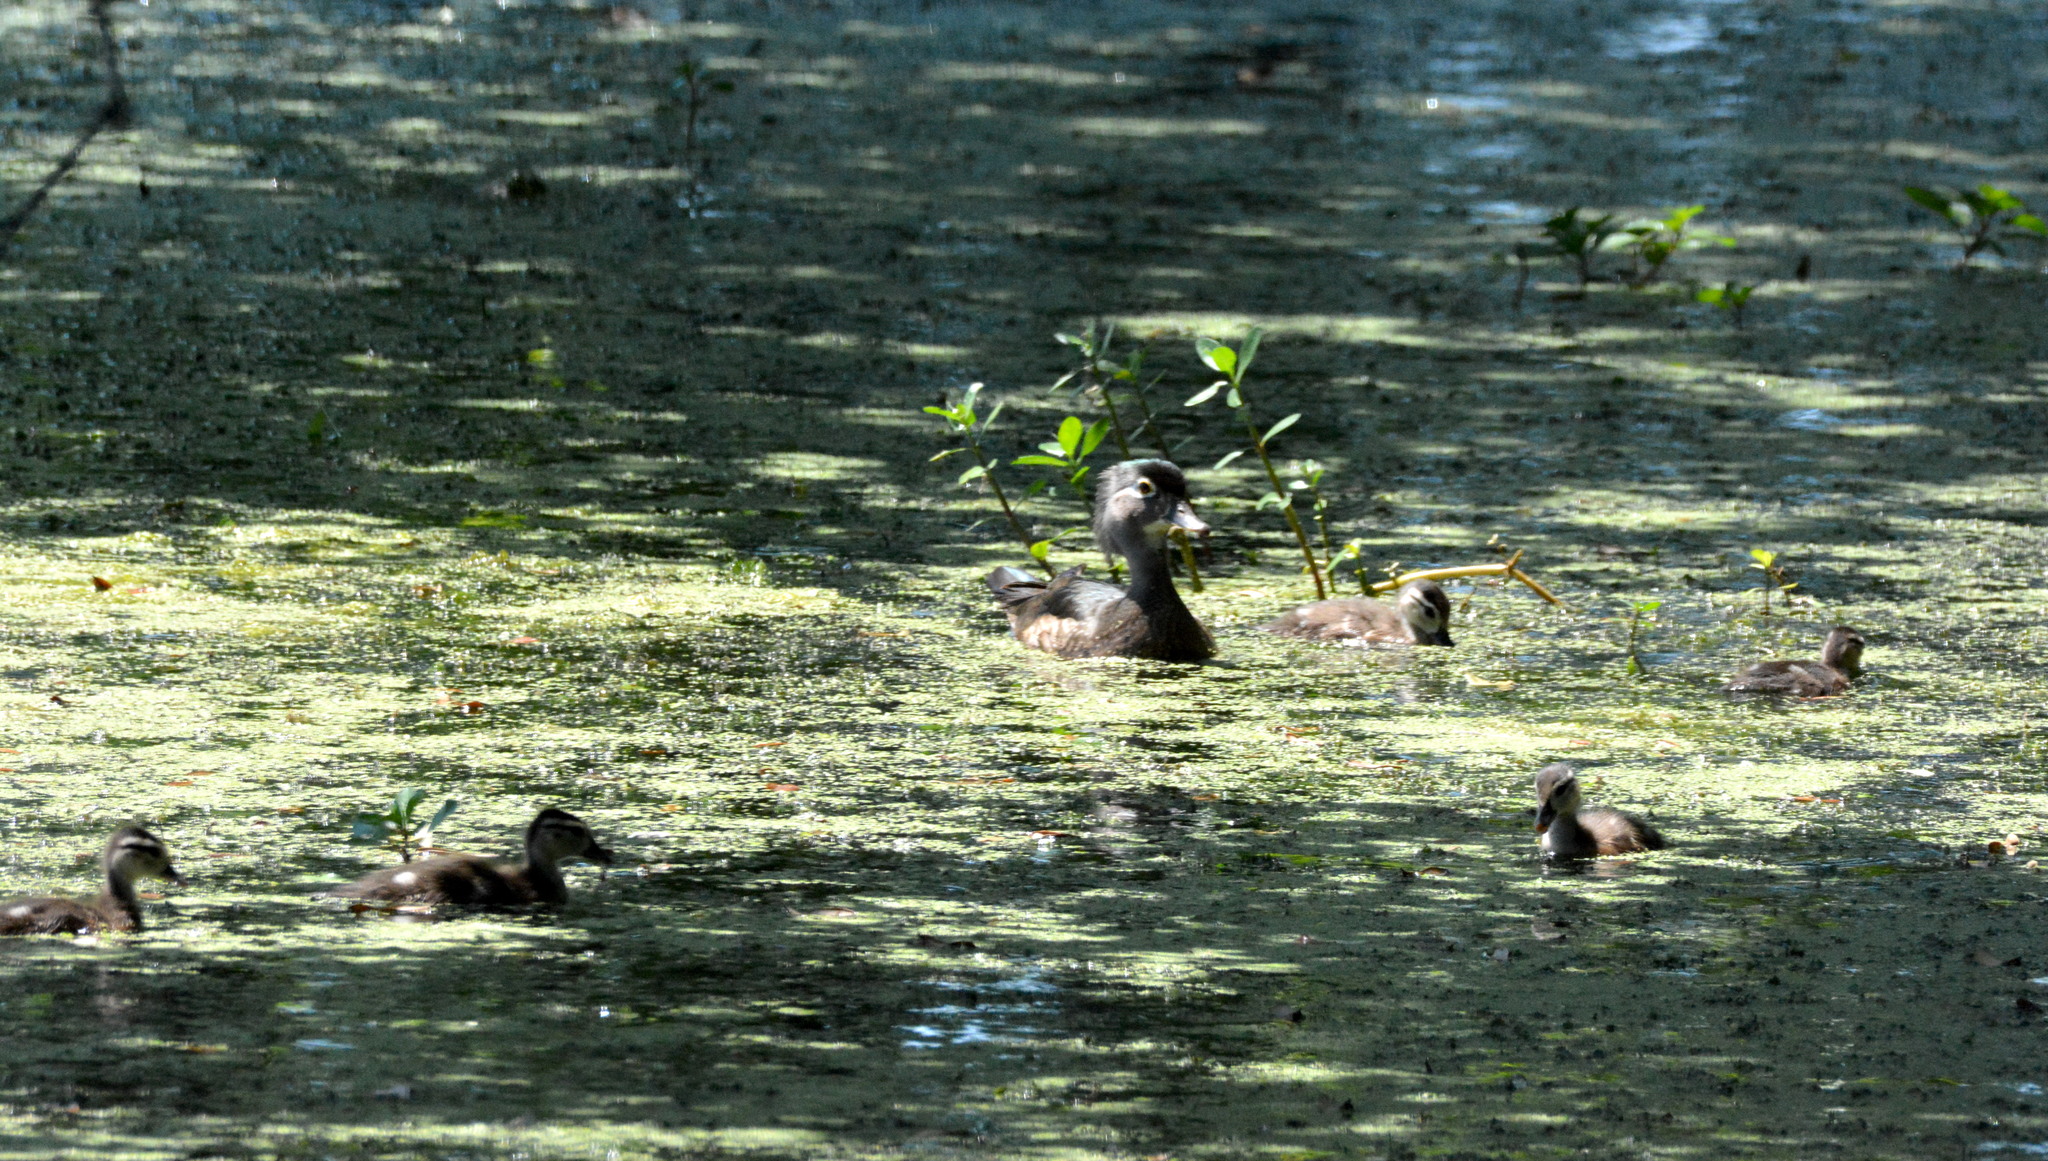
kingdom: Animalia
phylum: Chordata
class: Aves
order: Anseriformes
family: Anatidae
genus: Aix
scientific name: Aix sponsa
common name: Wood duck
